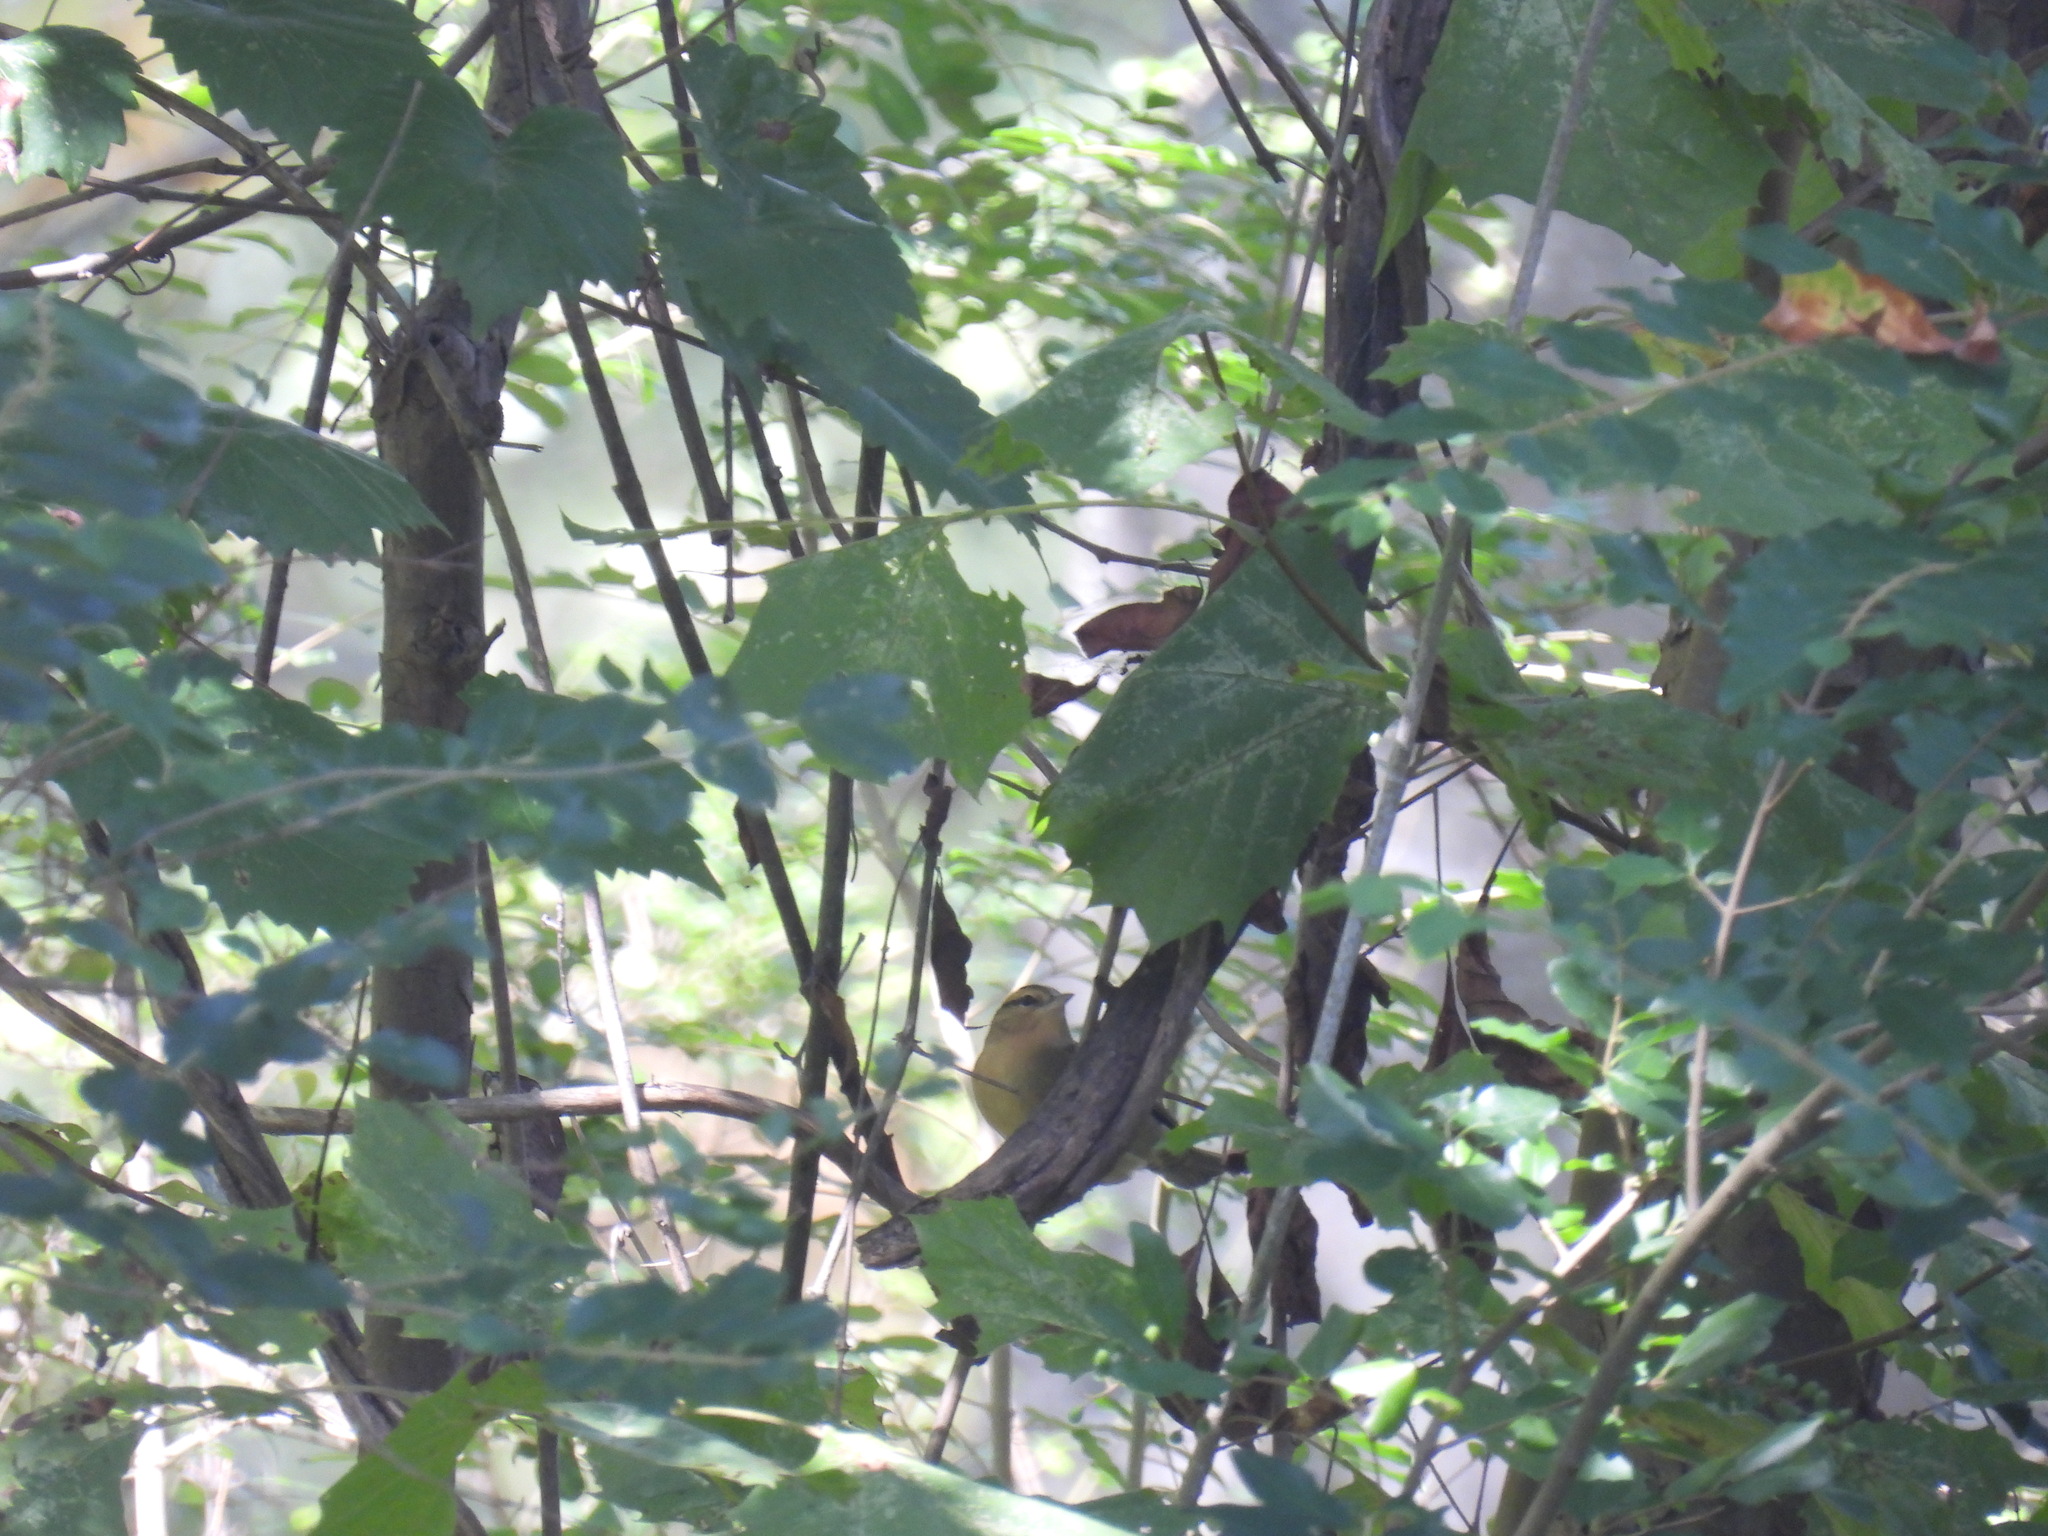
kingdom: Animalia
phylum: Chordata
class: Aves
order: Passeriformes
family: Parulidae
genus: Helmitheros
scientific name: Helmitheros vermivorum
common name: Worm-eating warbler
